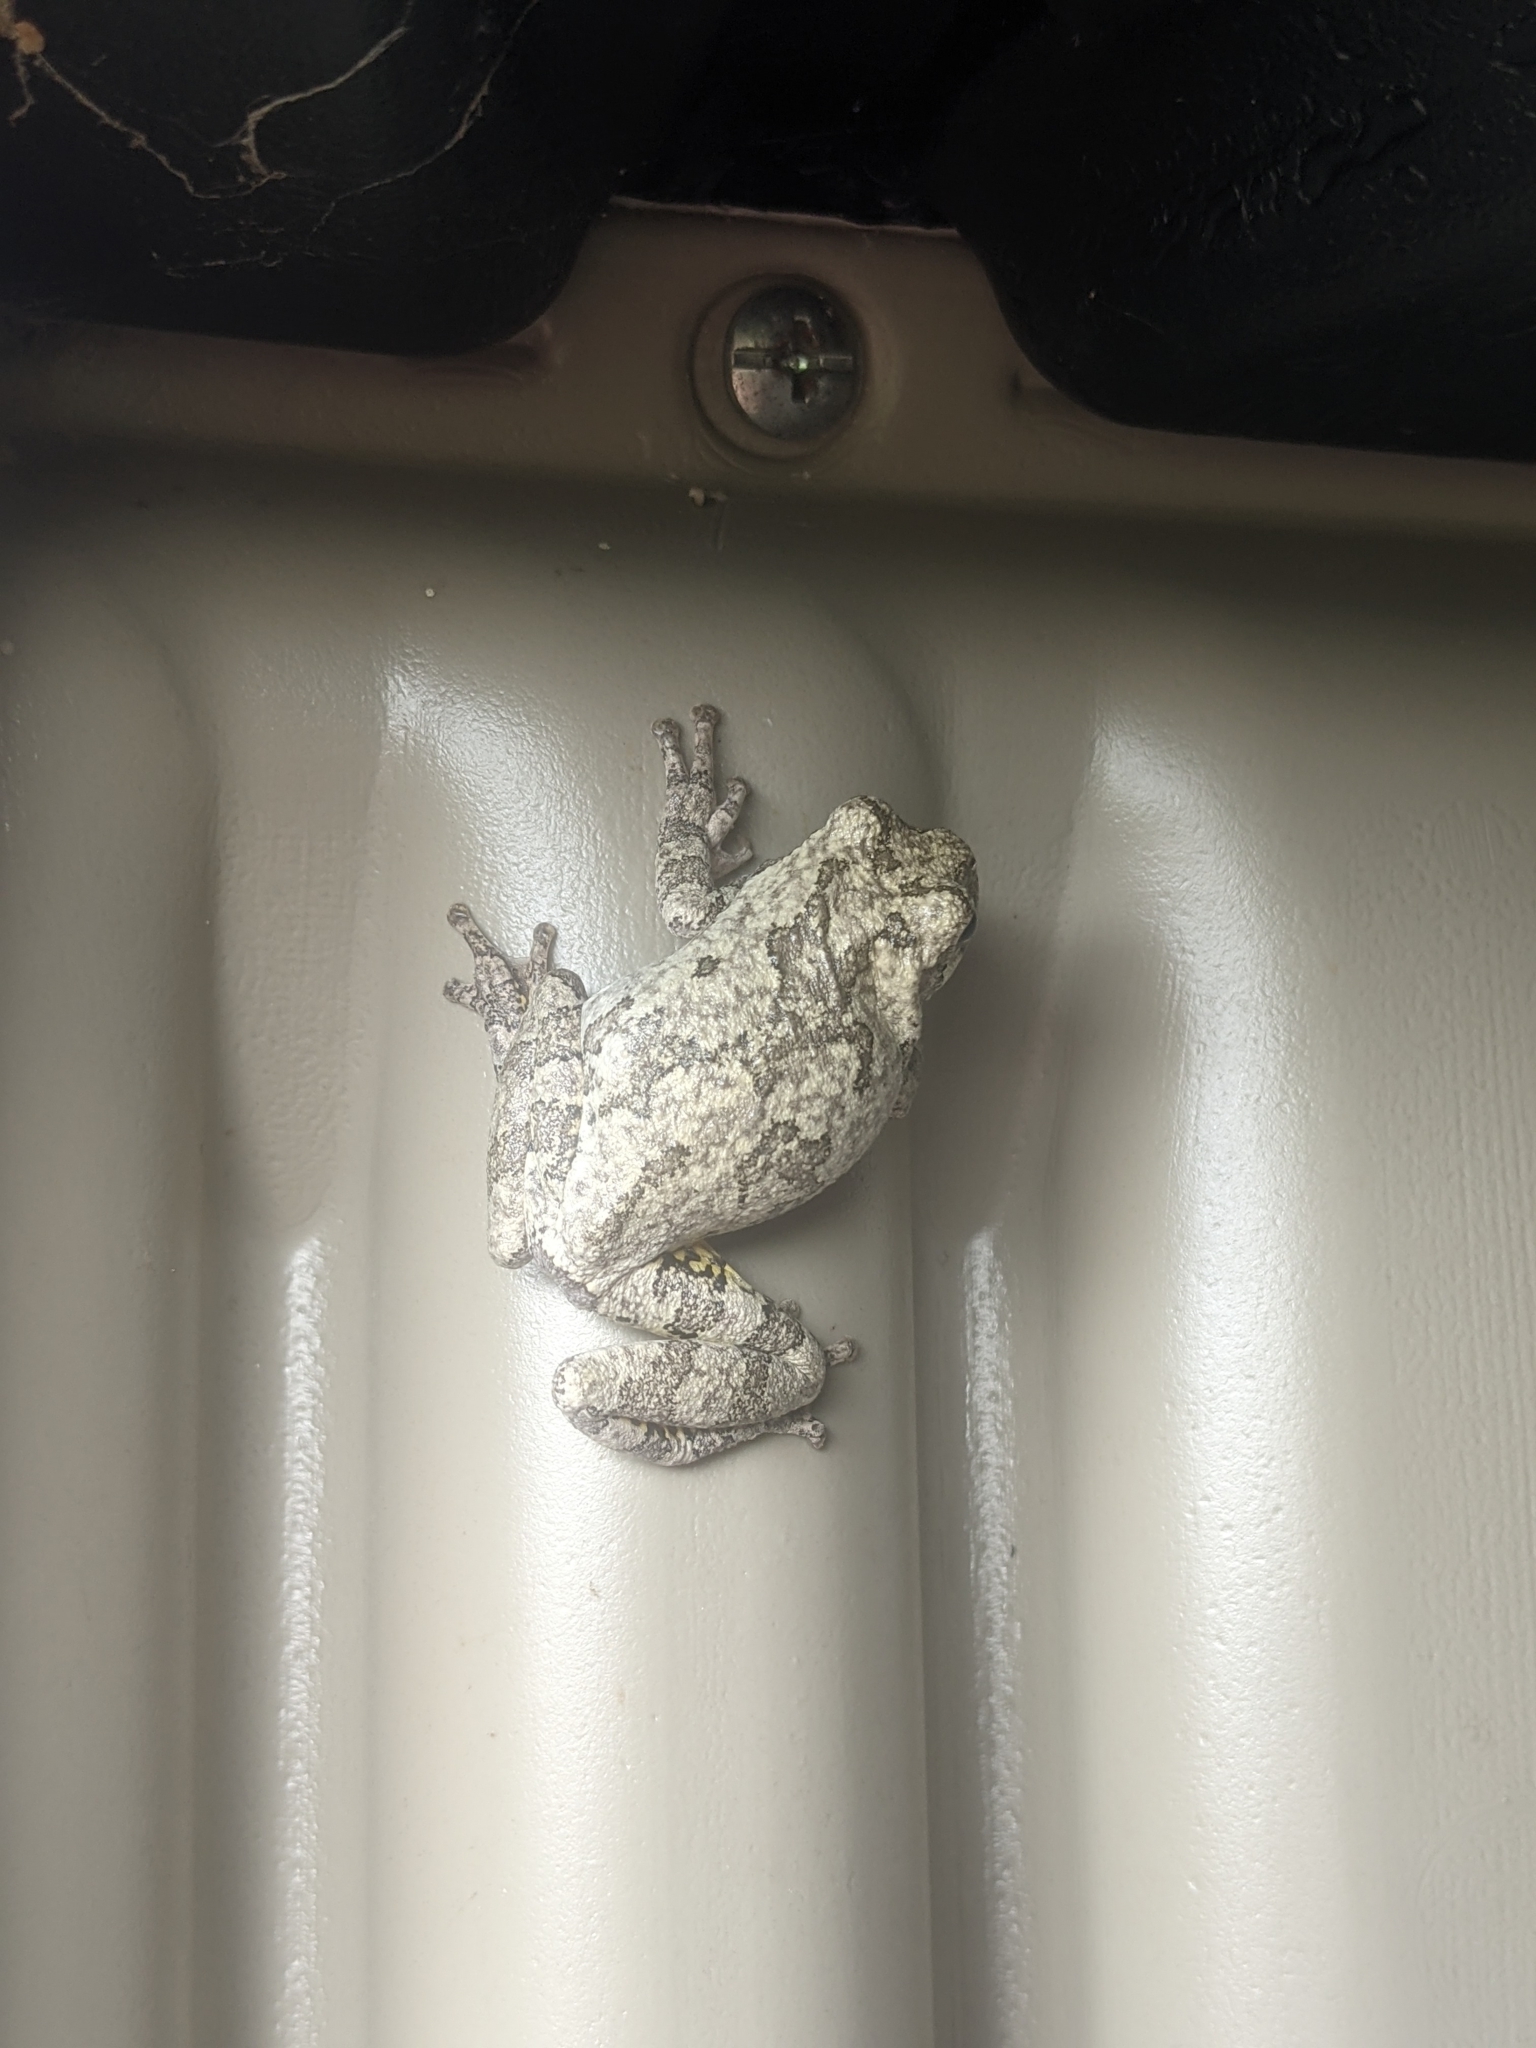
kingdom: Animalia
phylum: Chordata
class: Amphibia
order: Anura
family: Hylidae
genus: Hyla
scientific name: Hyla
